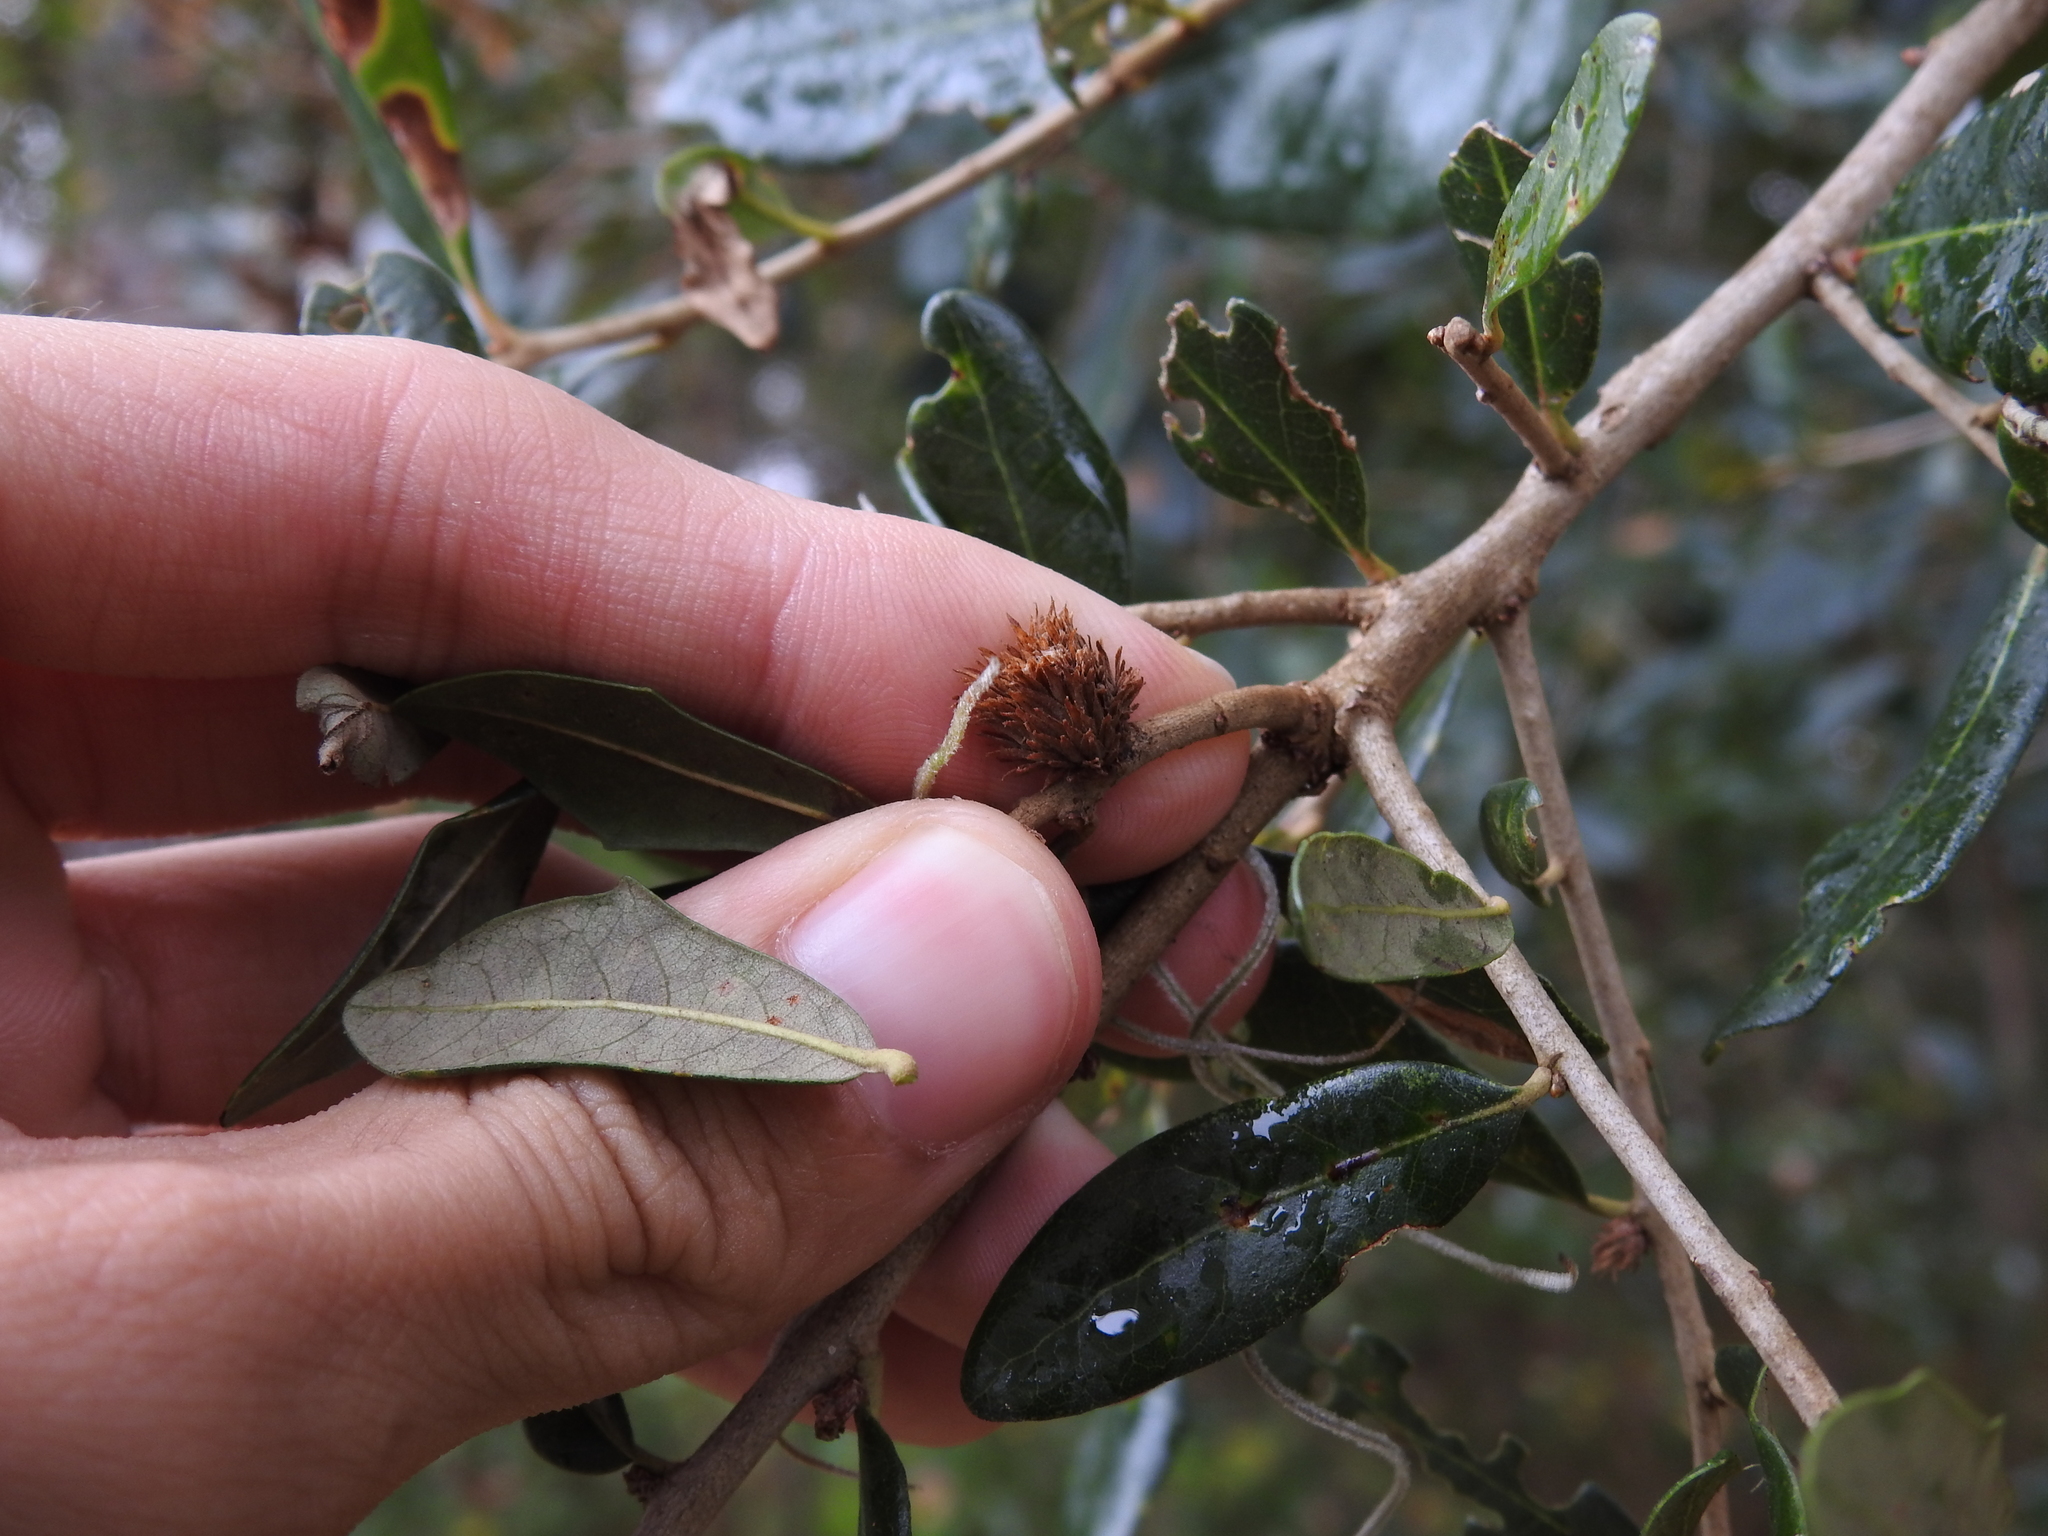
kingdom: Animalia
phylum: Arthropoda
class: Insecta
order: Hymenoptera
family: Cynipidae
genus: Andricus
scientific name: Andricus quercusfoliatus
